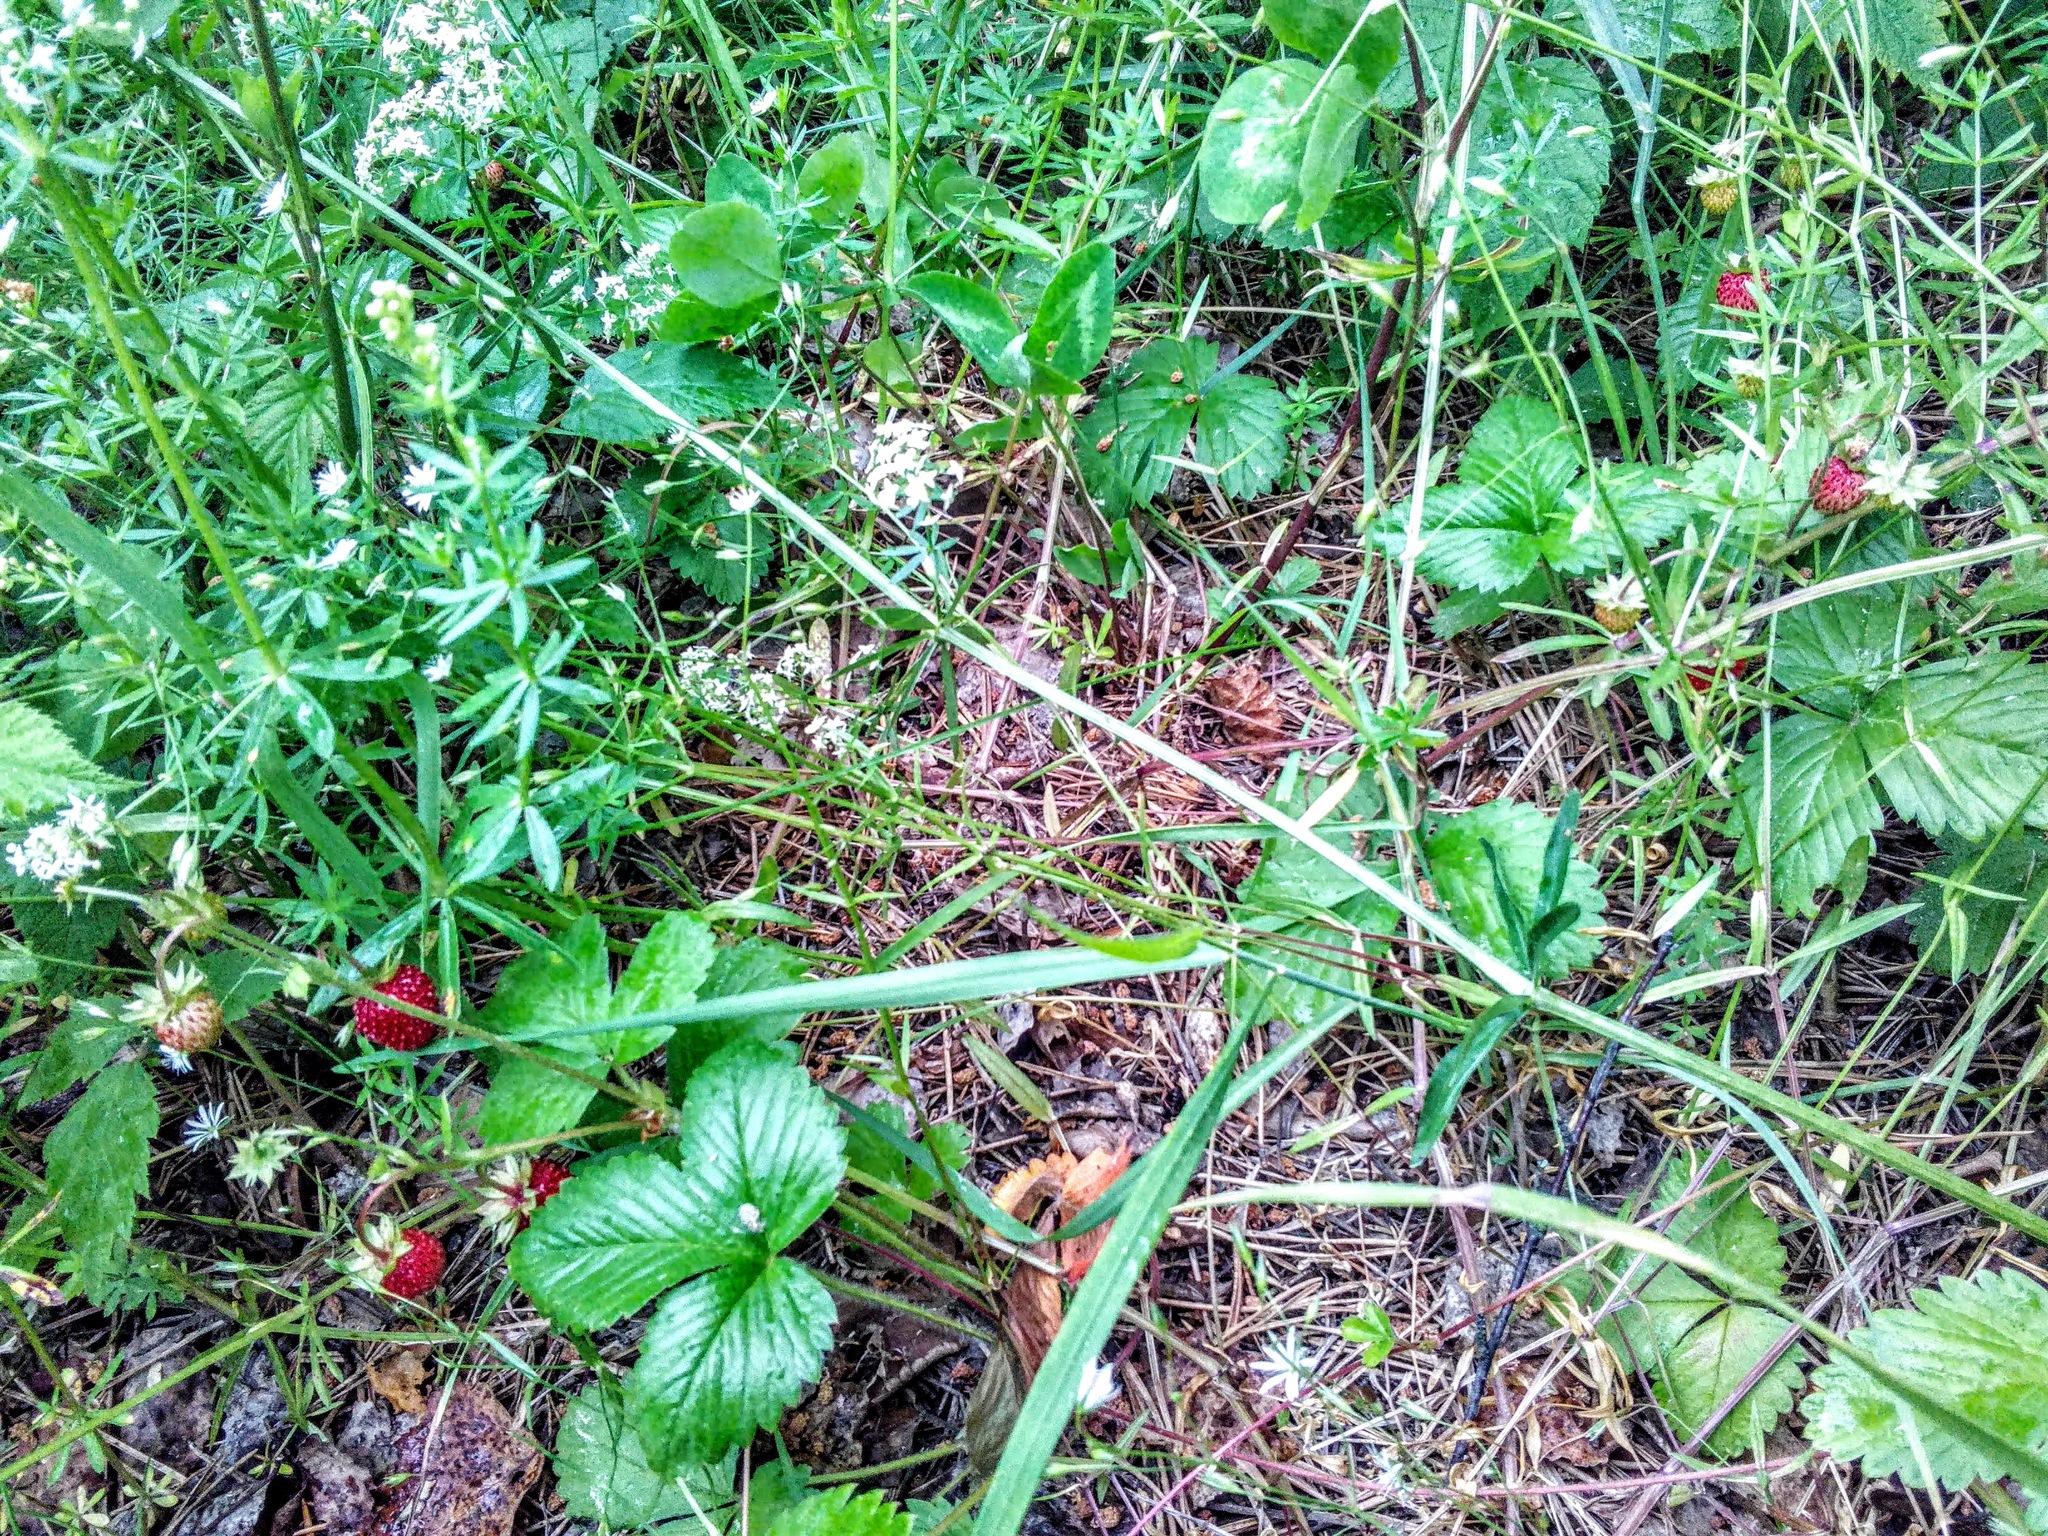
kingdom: Plantae
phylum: Tracheophyta
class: Magnoliopsida
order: Rosales
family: Rosaceae
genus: Fragaria
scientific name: Fragaria vesca
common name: Wild strawberry
